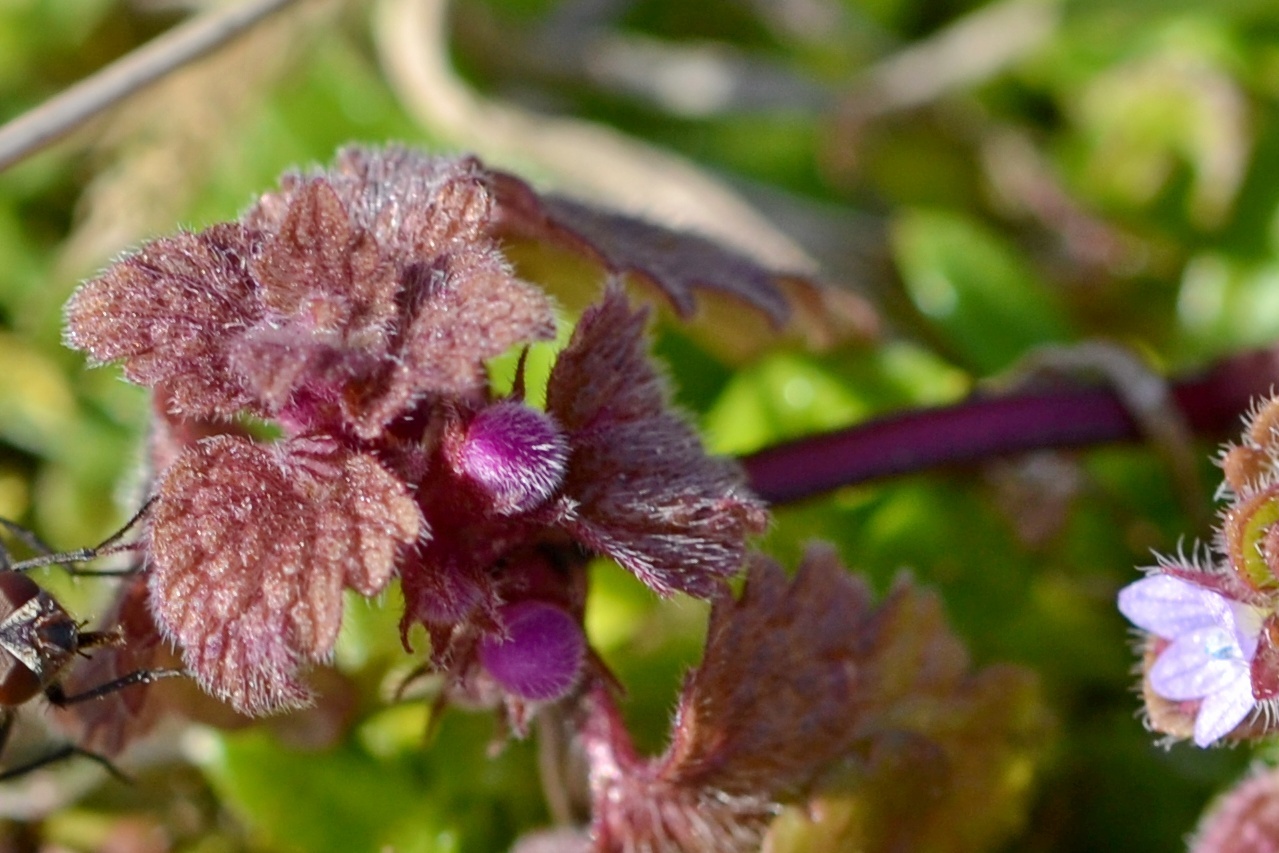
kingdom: Plantae
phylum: Tracheophyta
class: Magnoliopsida
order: Lamiales
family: Lamiaceae
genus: Lamium
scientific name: Lamium purpureum
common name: Red dead-nettle
